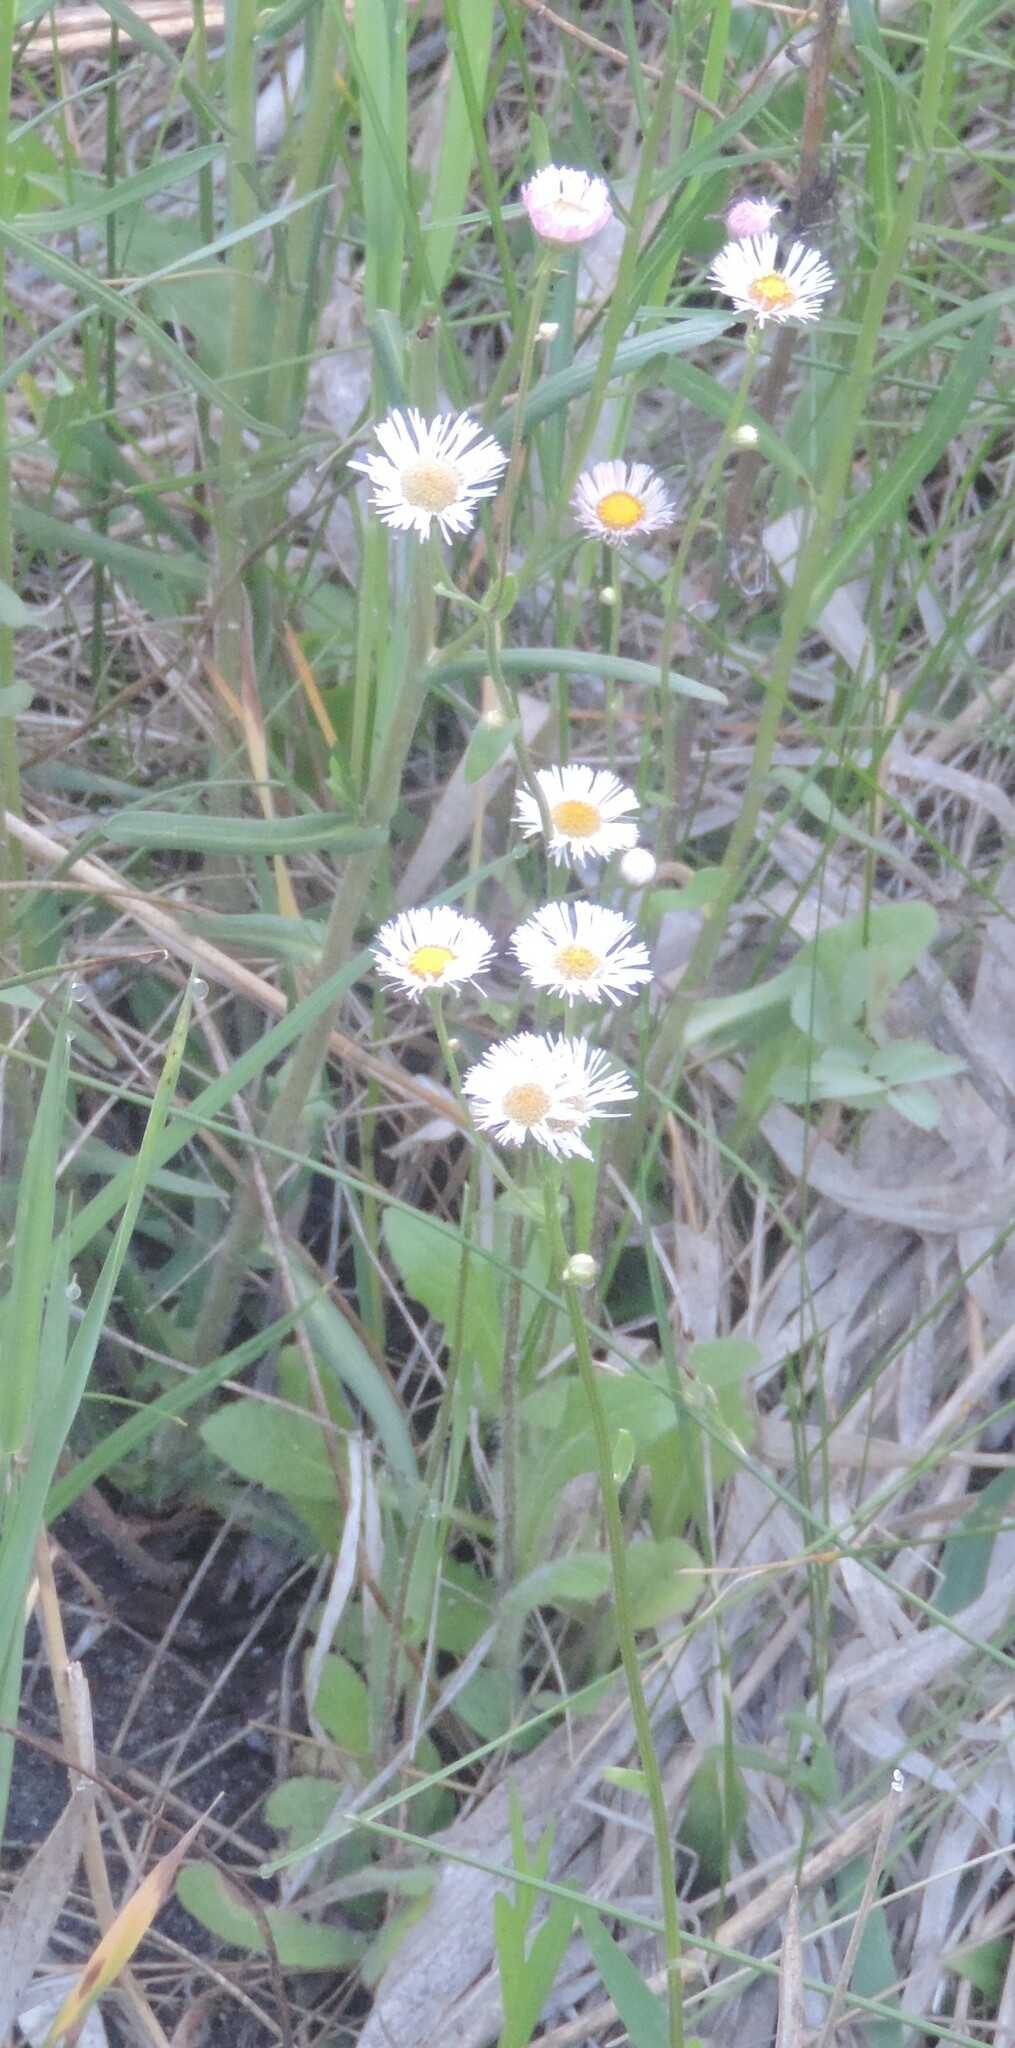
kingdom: Plantae
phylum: Tracheophyta
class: Magnoliopsida
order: Asterales
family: Asteraceae
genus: Erigeron
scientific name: Erigeron philadelphicus
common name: Robin's-plantain
